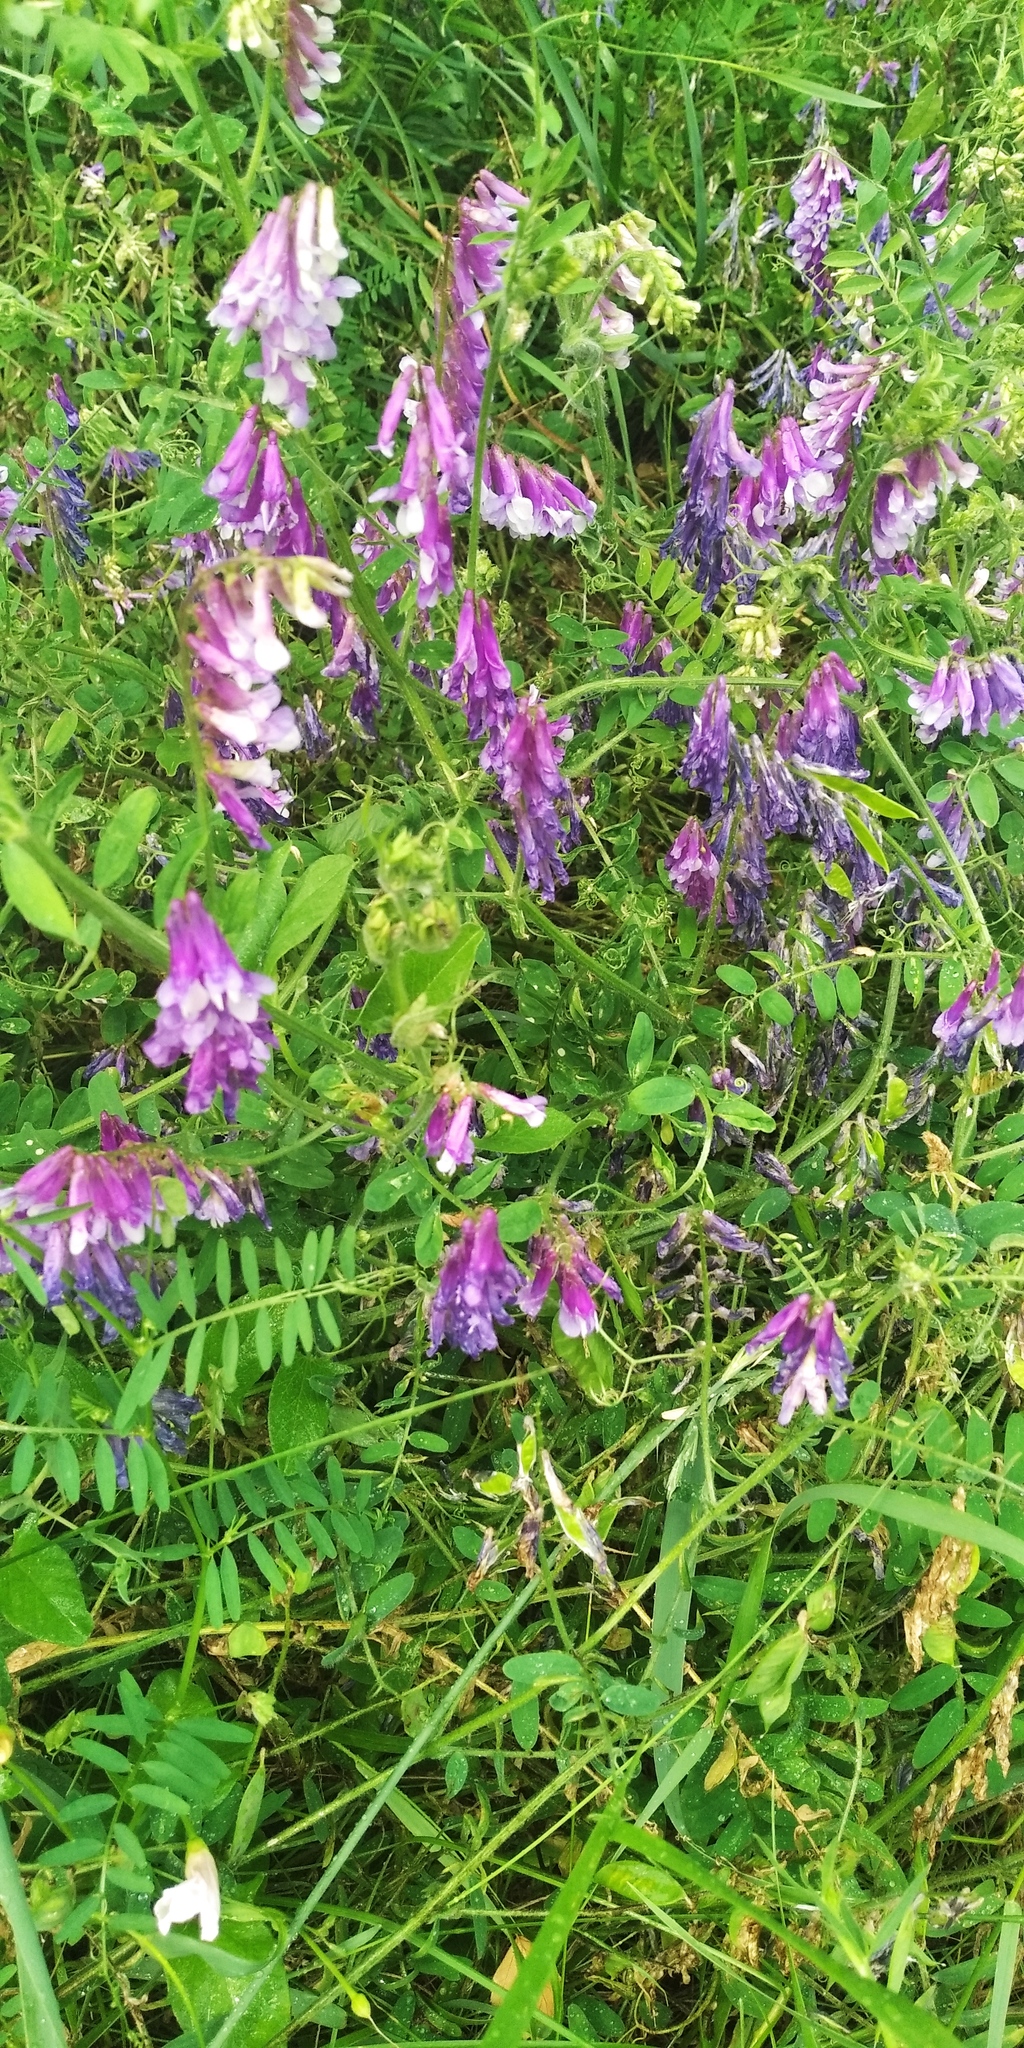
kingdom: Plantae
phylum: Tracheophyta
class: Magnoliopsida
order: Fabales
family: Fabaceae
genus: Vicia
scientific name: Vicia villosa
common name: Fodder vetch
